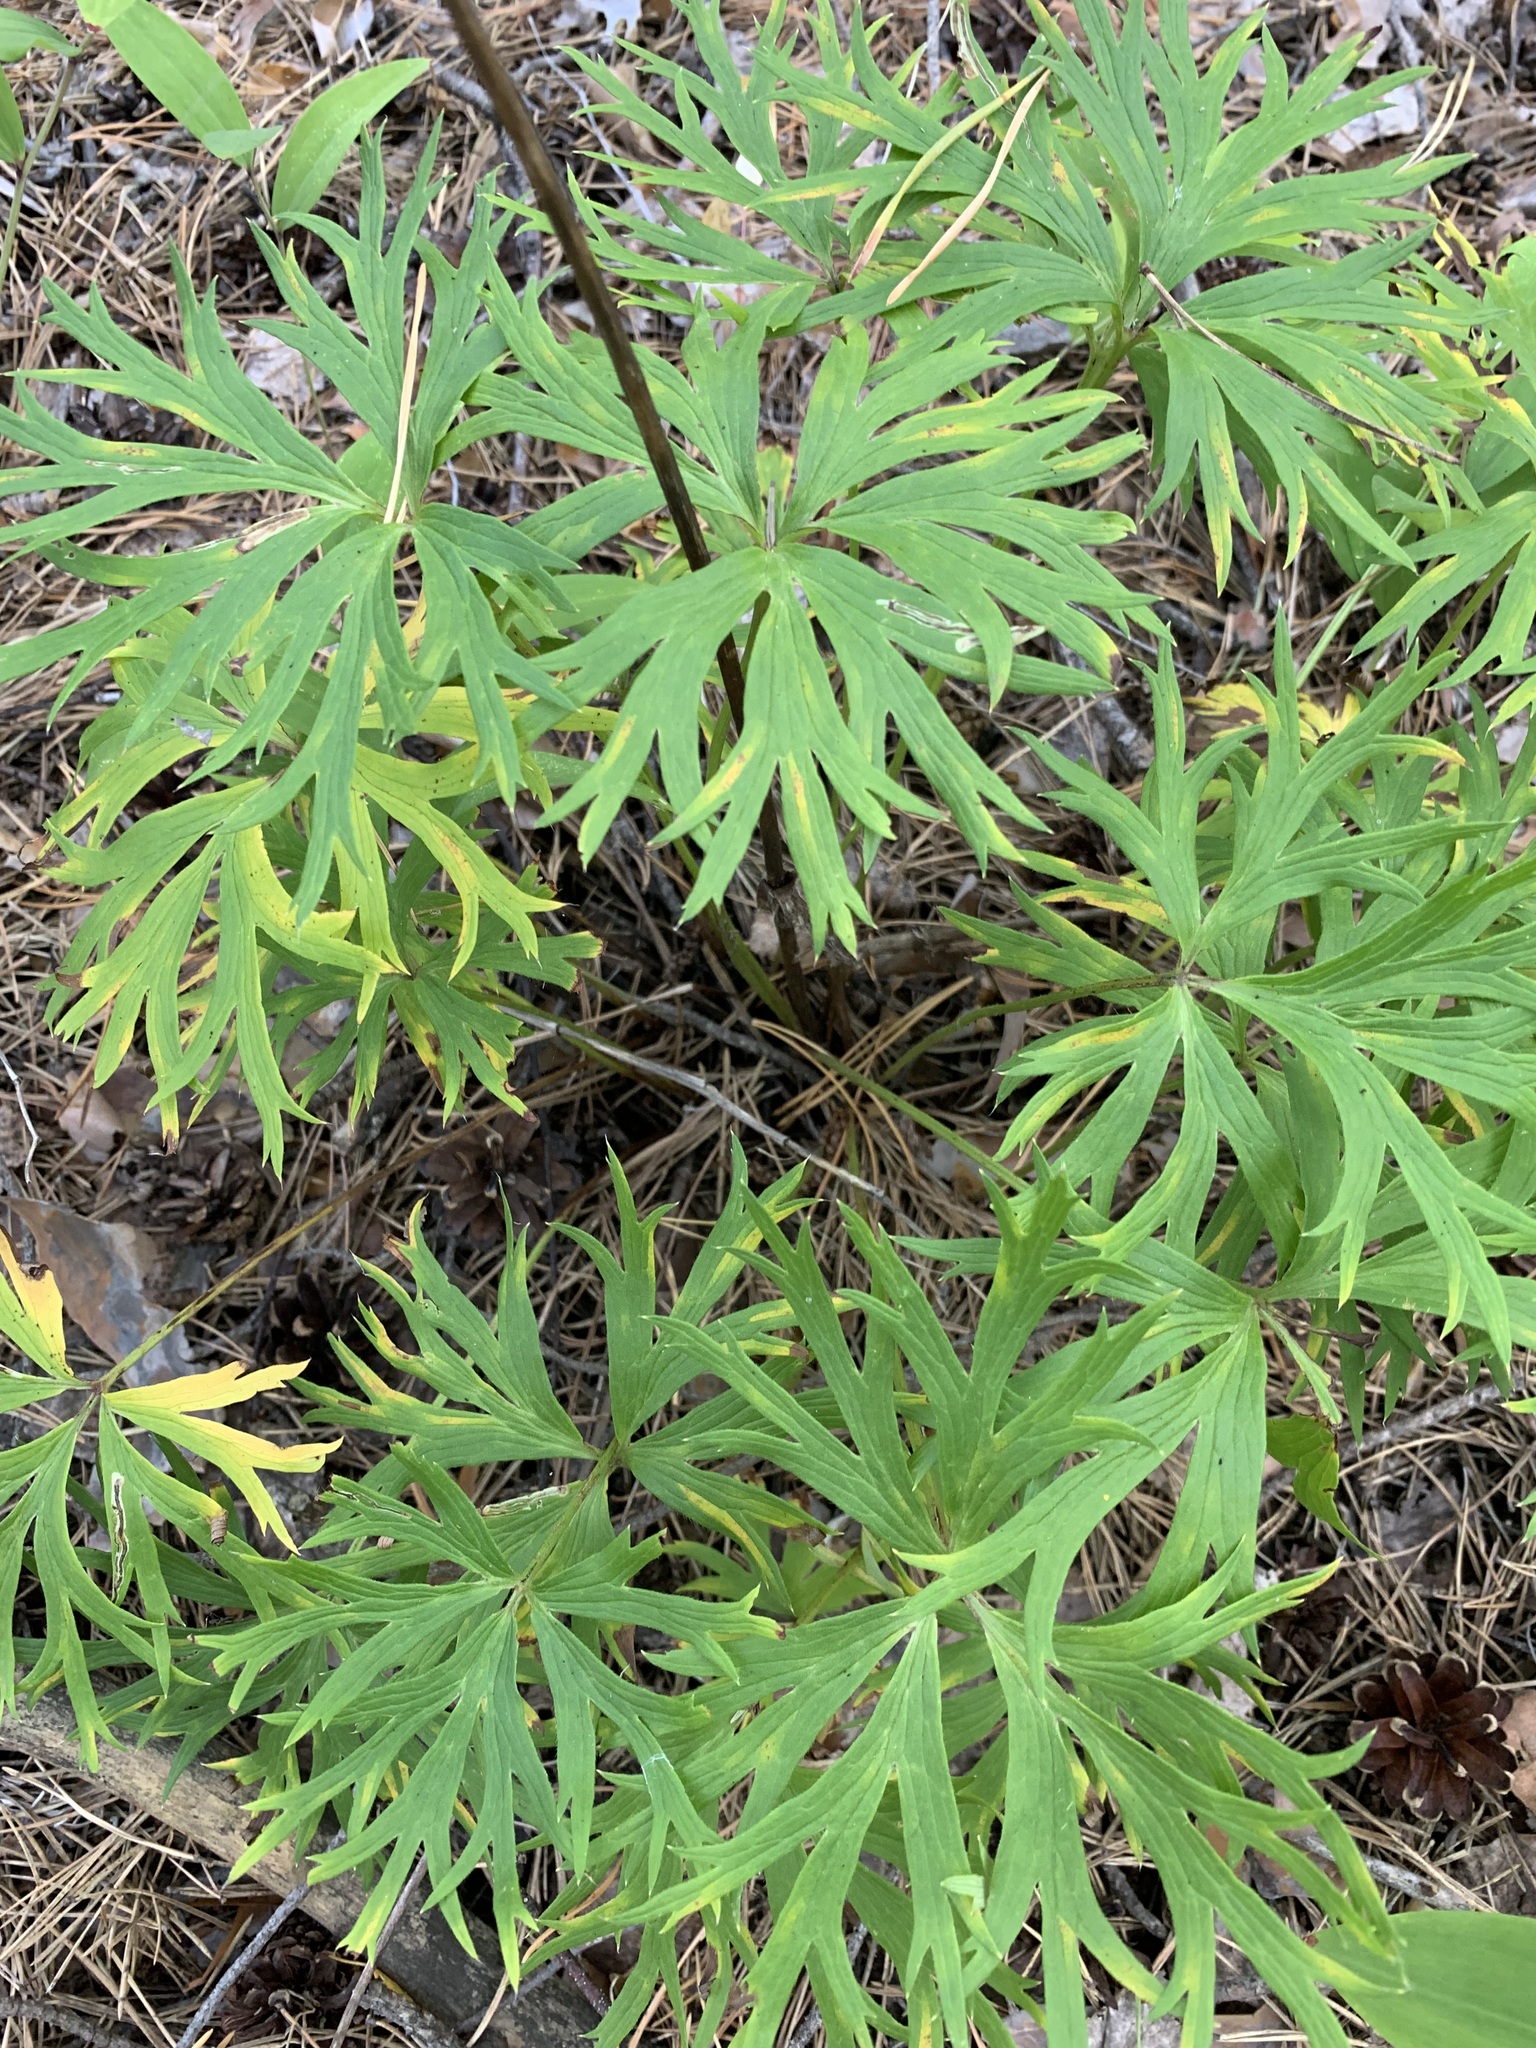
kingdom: Plantae
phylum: Tracheophyta
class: Magnoliopsida
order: Ranunculales
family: Ranunculaceae
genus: Pulsatilla
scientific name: Pulsatilla patens
